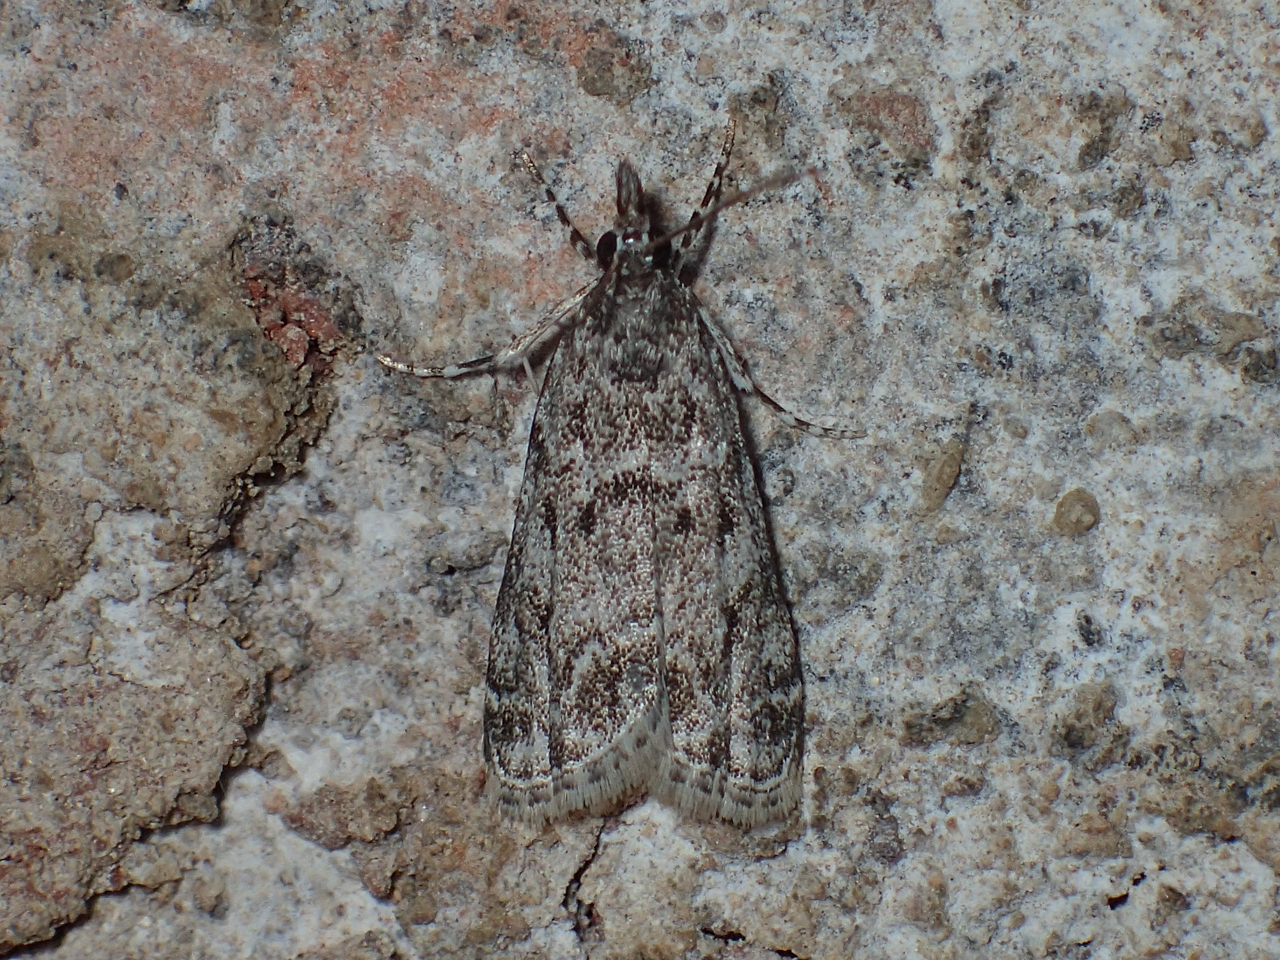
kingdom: Animalia
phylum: Arthropoda
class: Insecta
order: Lepidoptera
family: Crambidae
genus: Eudonia
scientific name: Eudonia heterosalis
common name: Mcdunnough's eudonia
